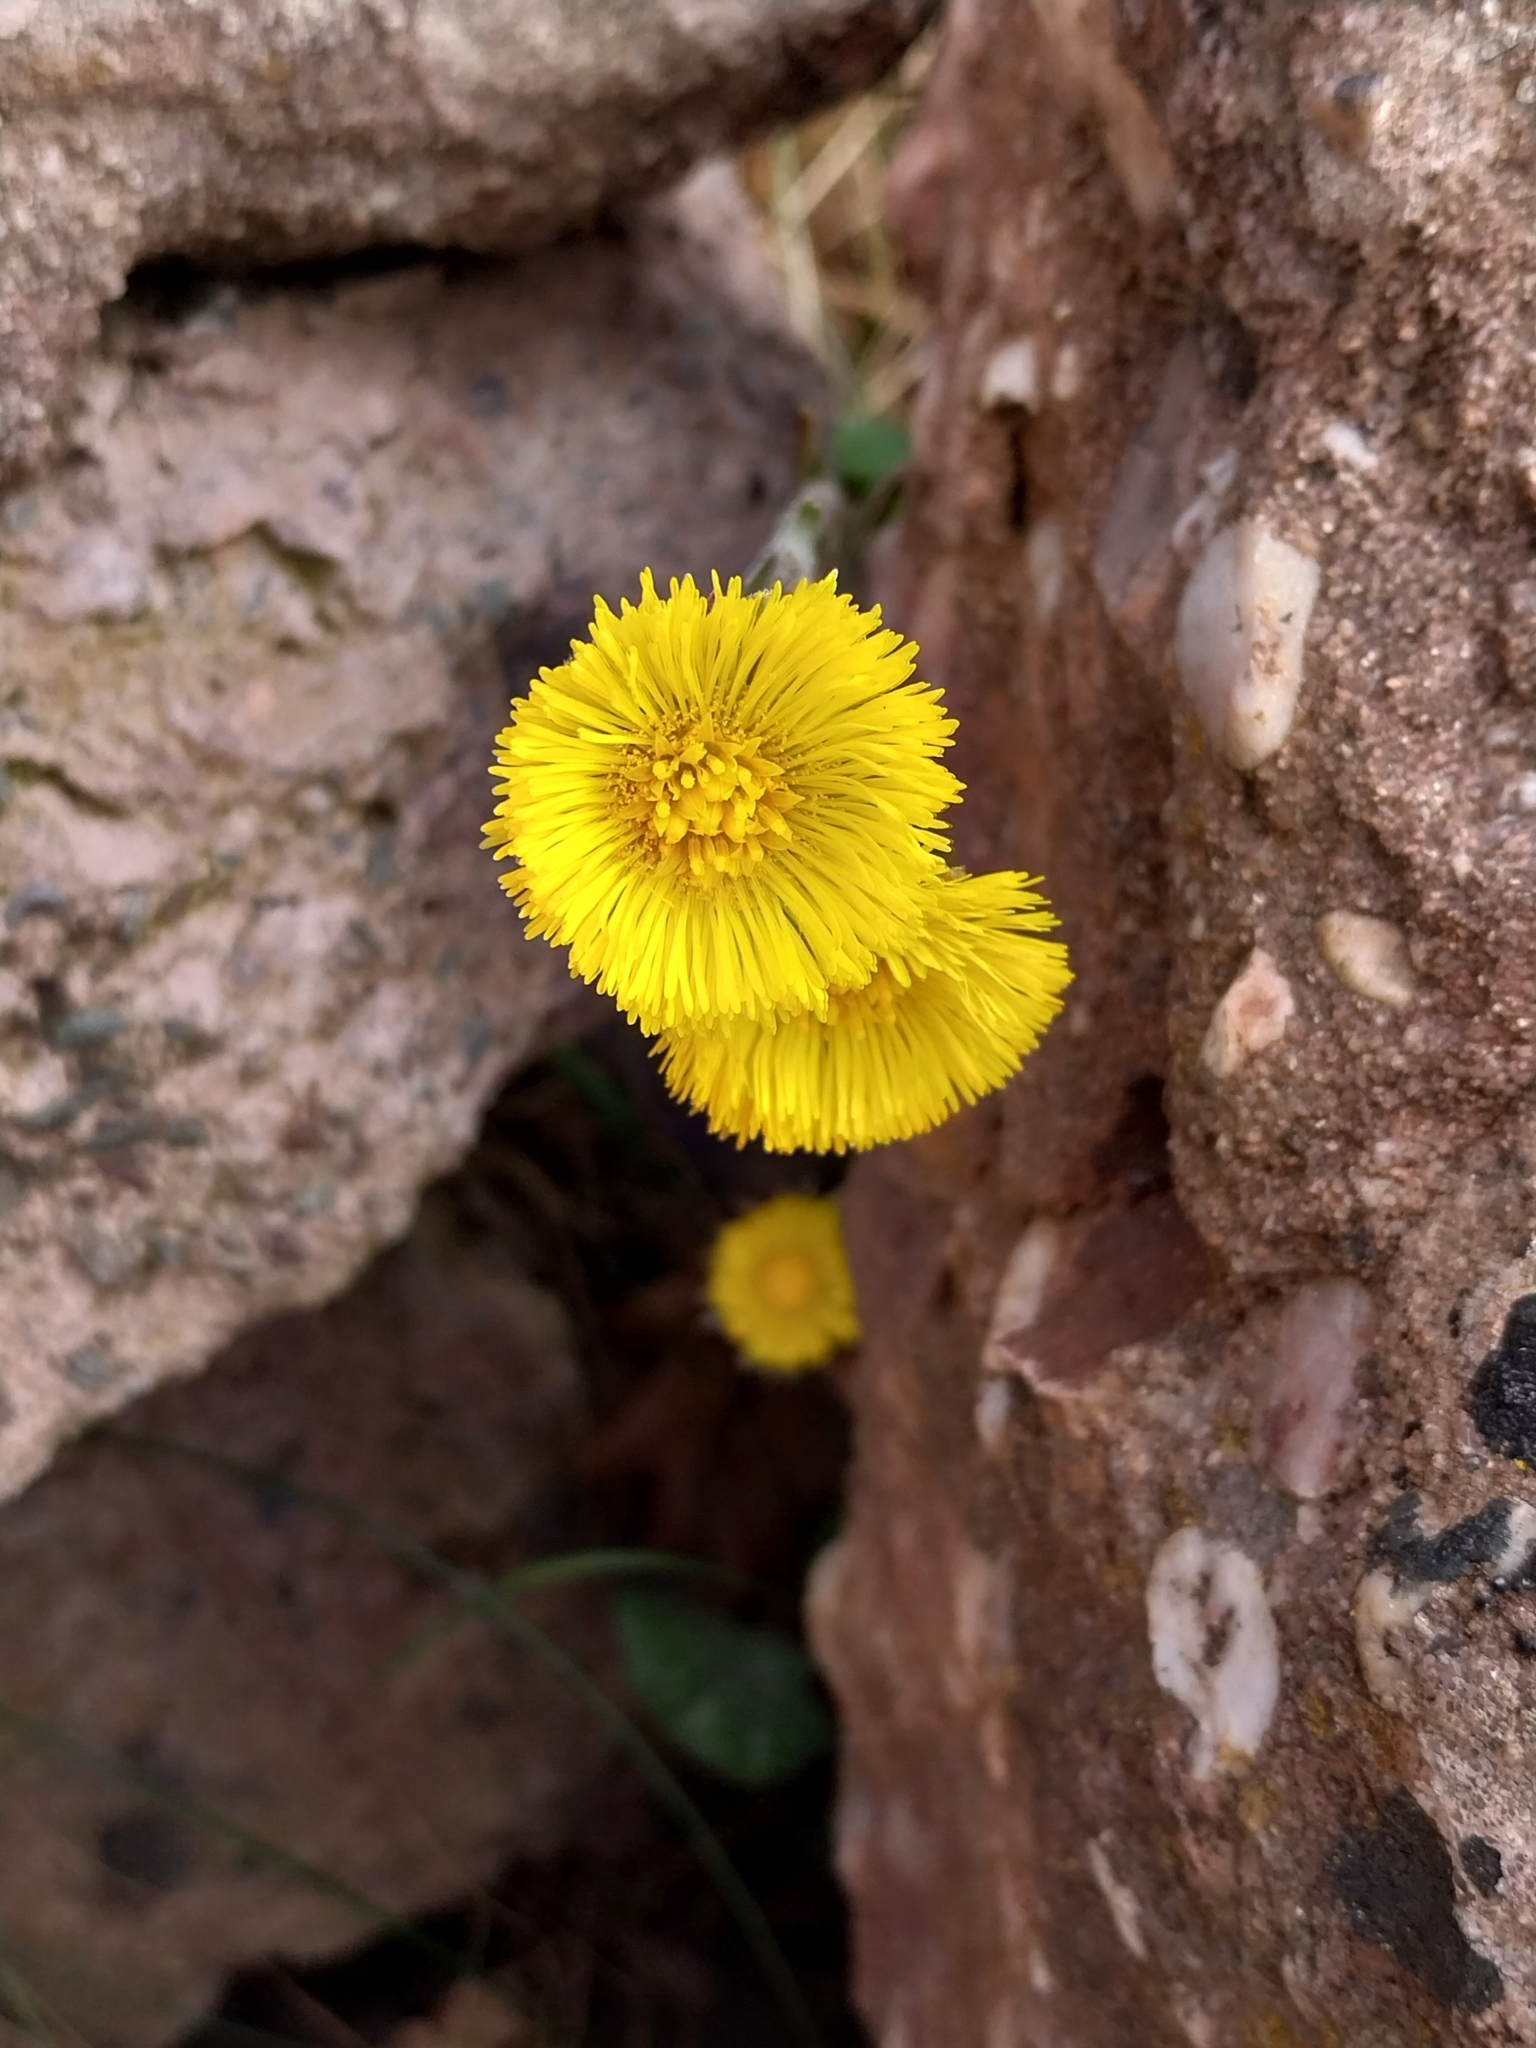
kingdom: Plantae
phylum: Tracheophyta
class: Magnoliopsida
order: Asterales
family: Asteraceae
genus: Tussilago
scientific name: Tussilago farfara
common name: Coltsfoot
